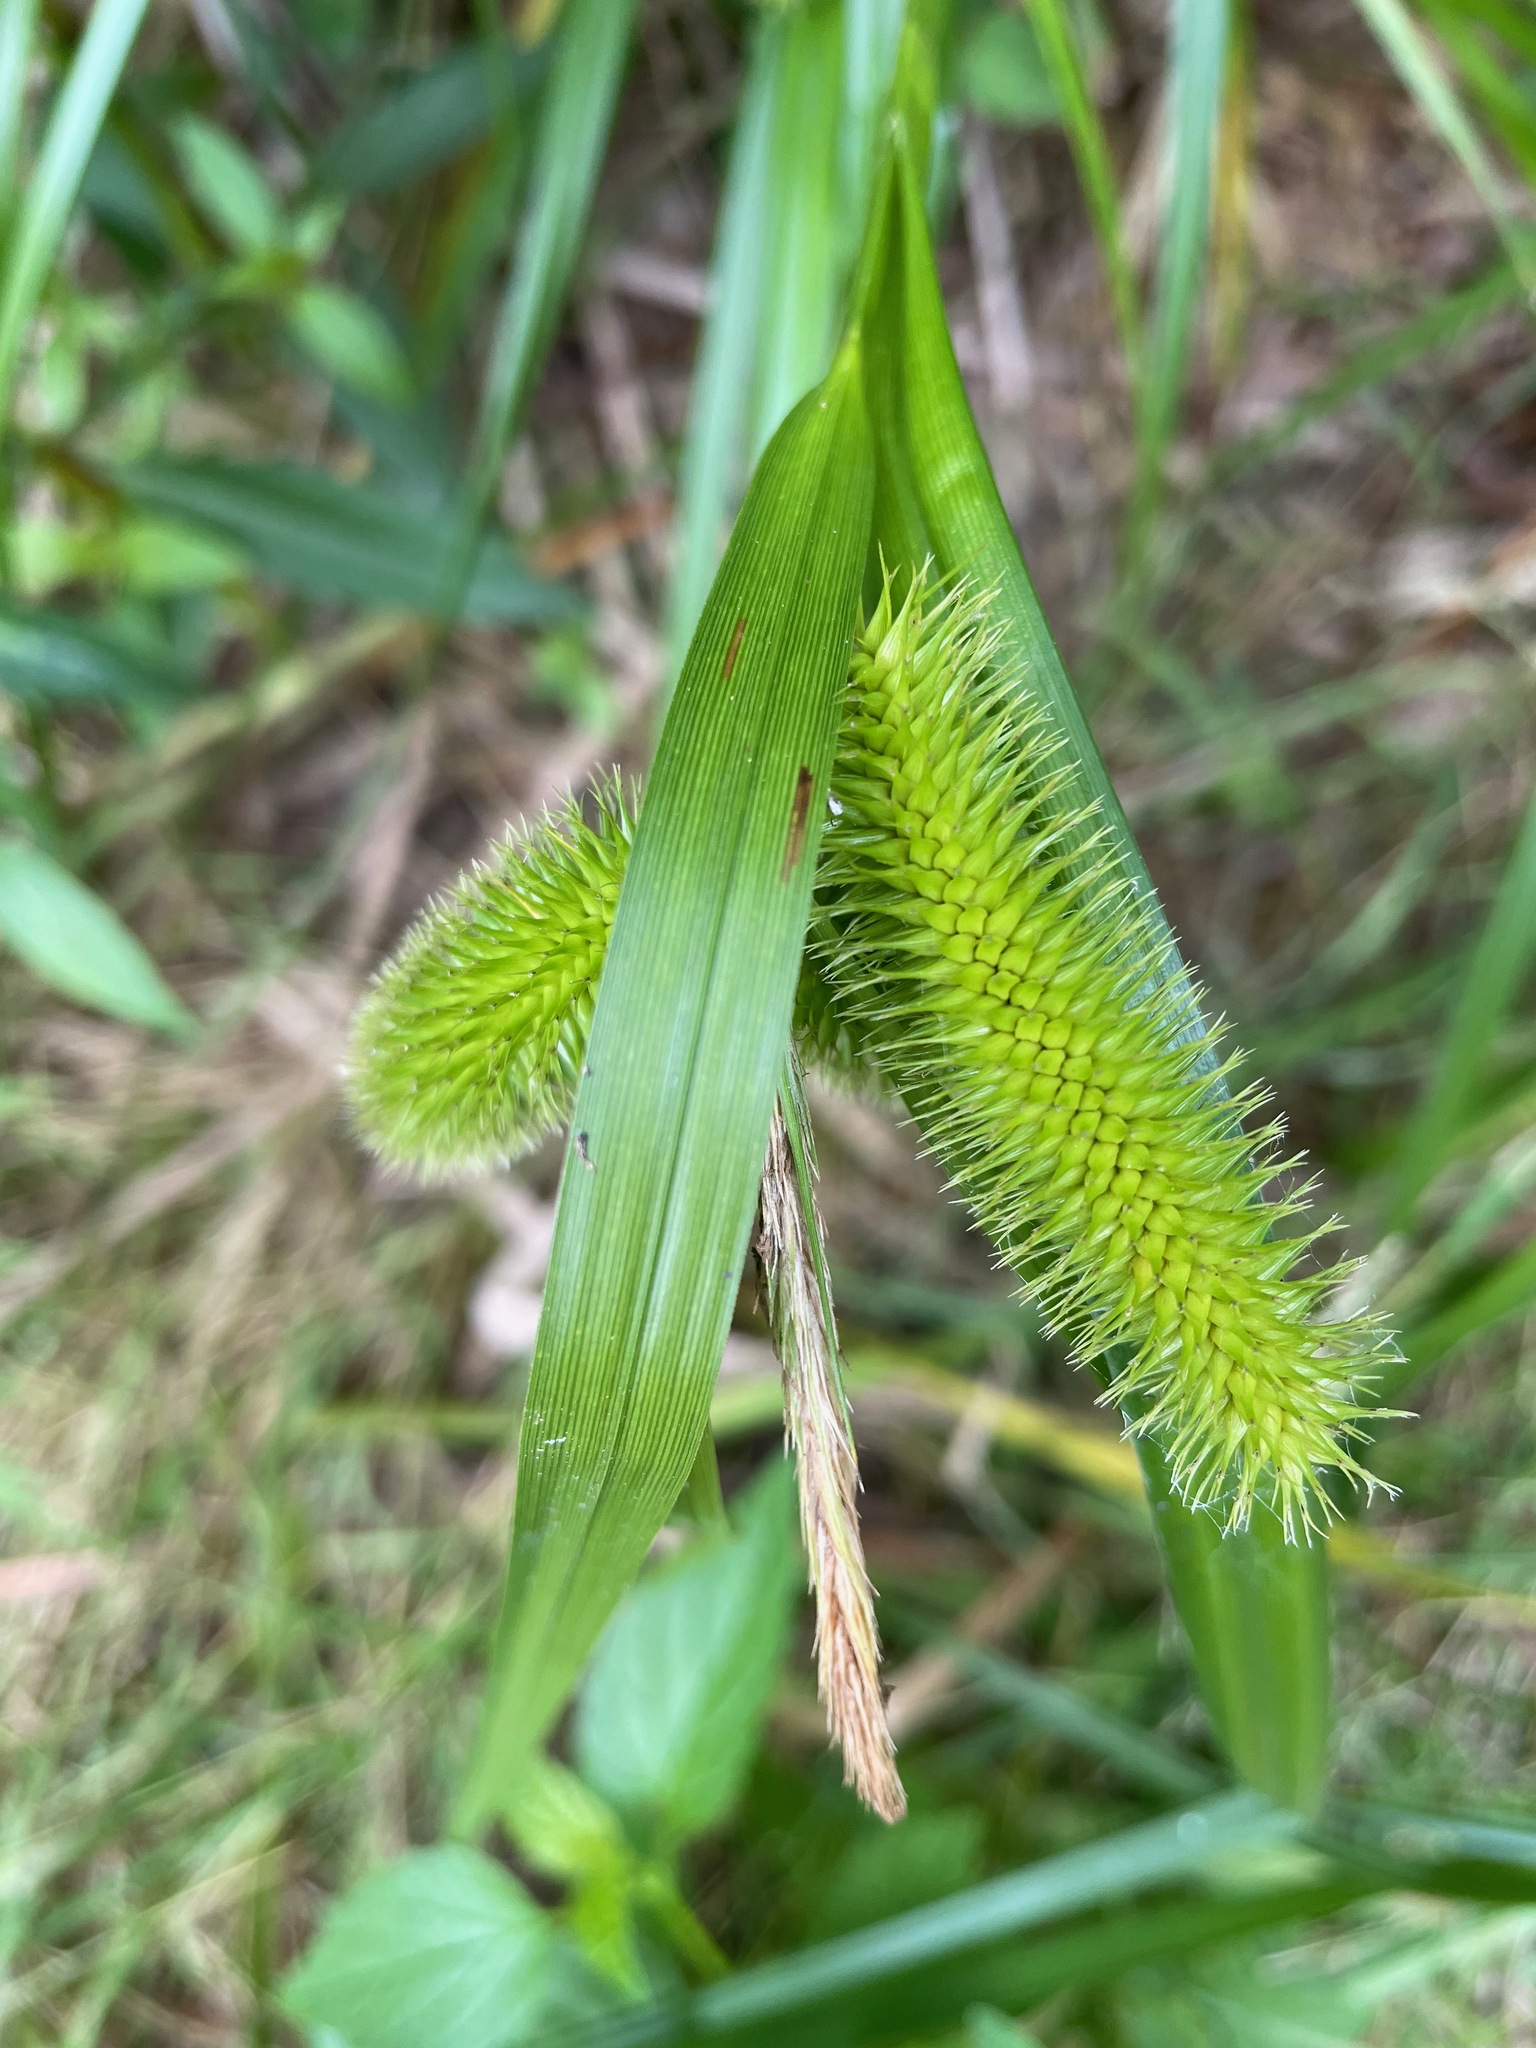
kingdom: Plantae
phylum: Tracheophyta
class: Liliopsida
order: Poales
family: Cyperaceae
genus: Carex
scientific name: Carex comosa
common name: Bristly sedge
